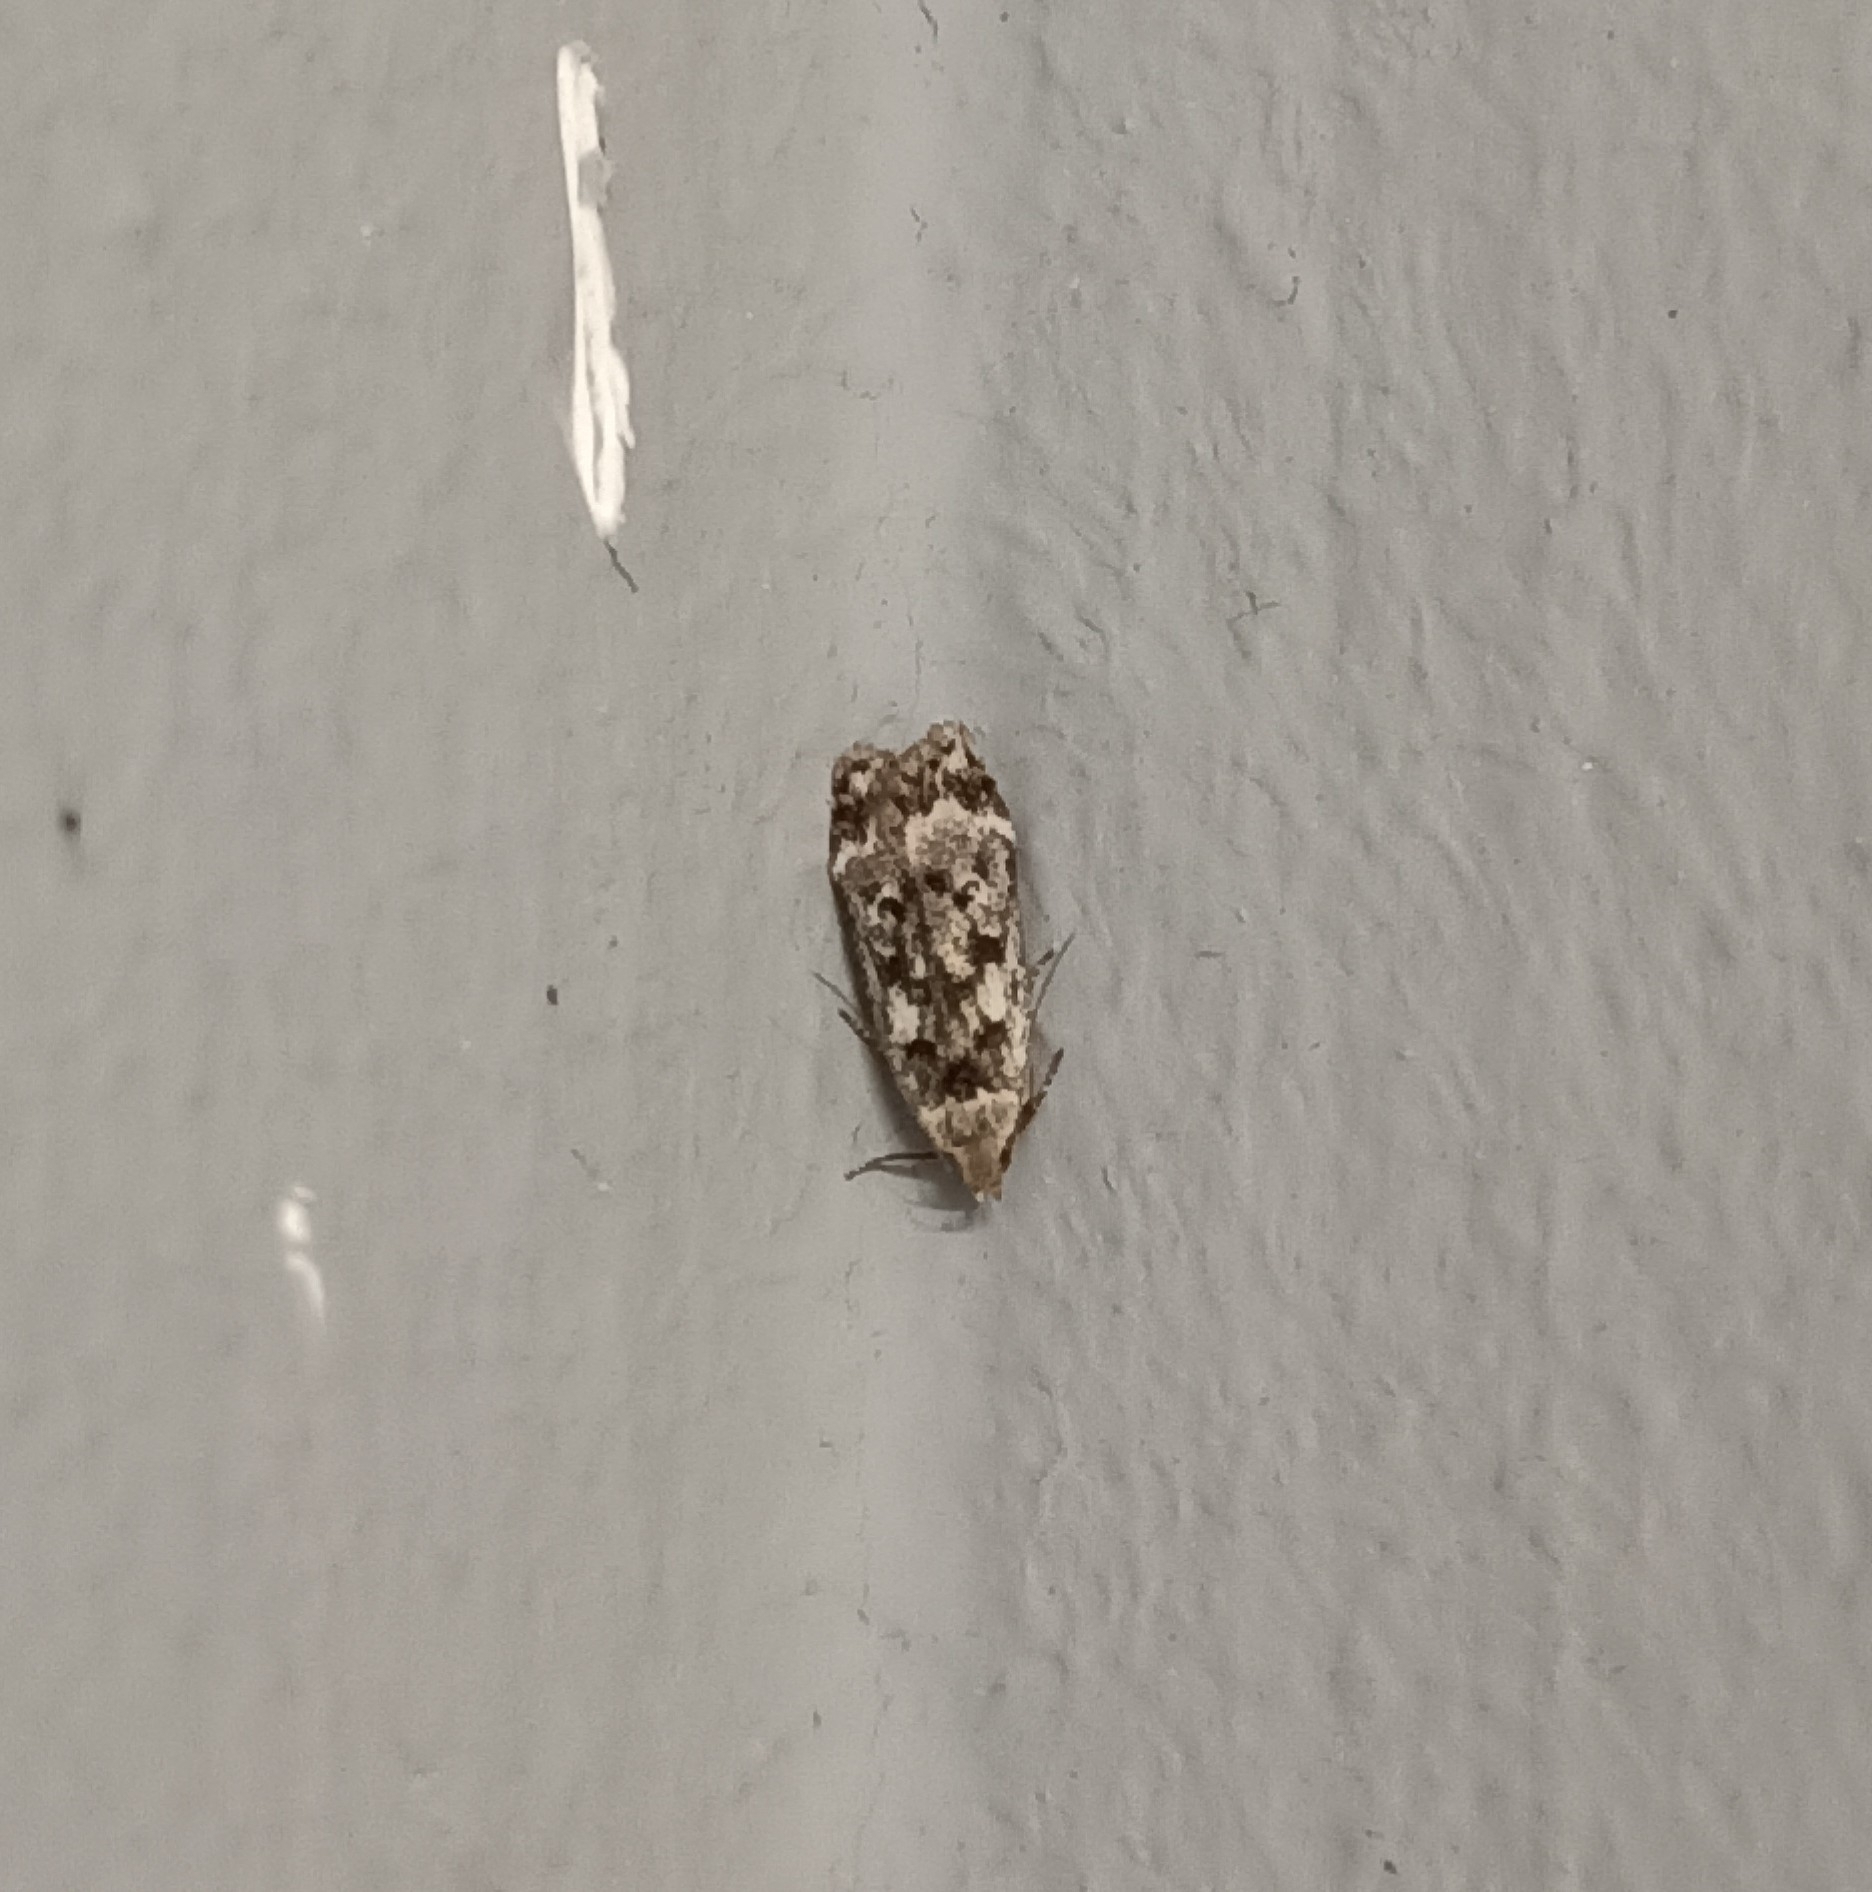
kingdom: Animalia
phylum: Arthropoda
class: Insecta
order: Lepidoptera
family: Gelechiidae
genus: Anacampsis
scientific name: Anacampsis blattariella
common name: Birch sober
